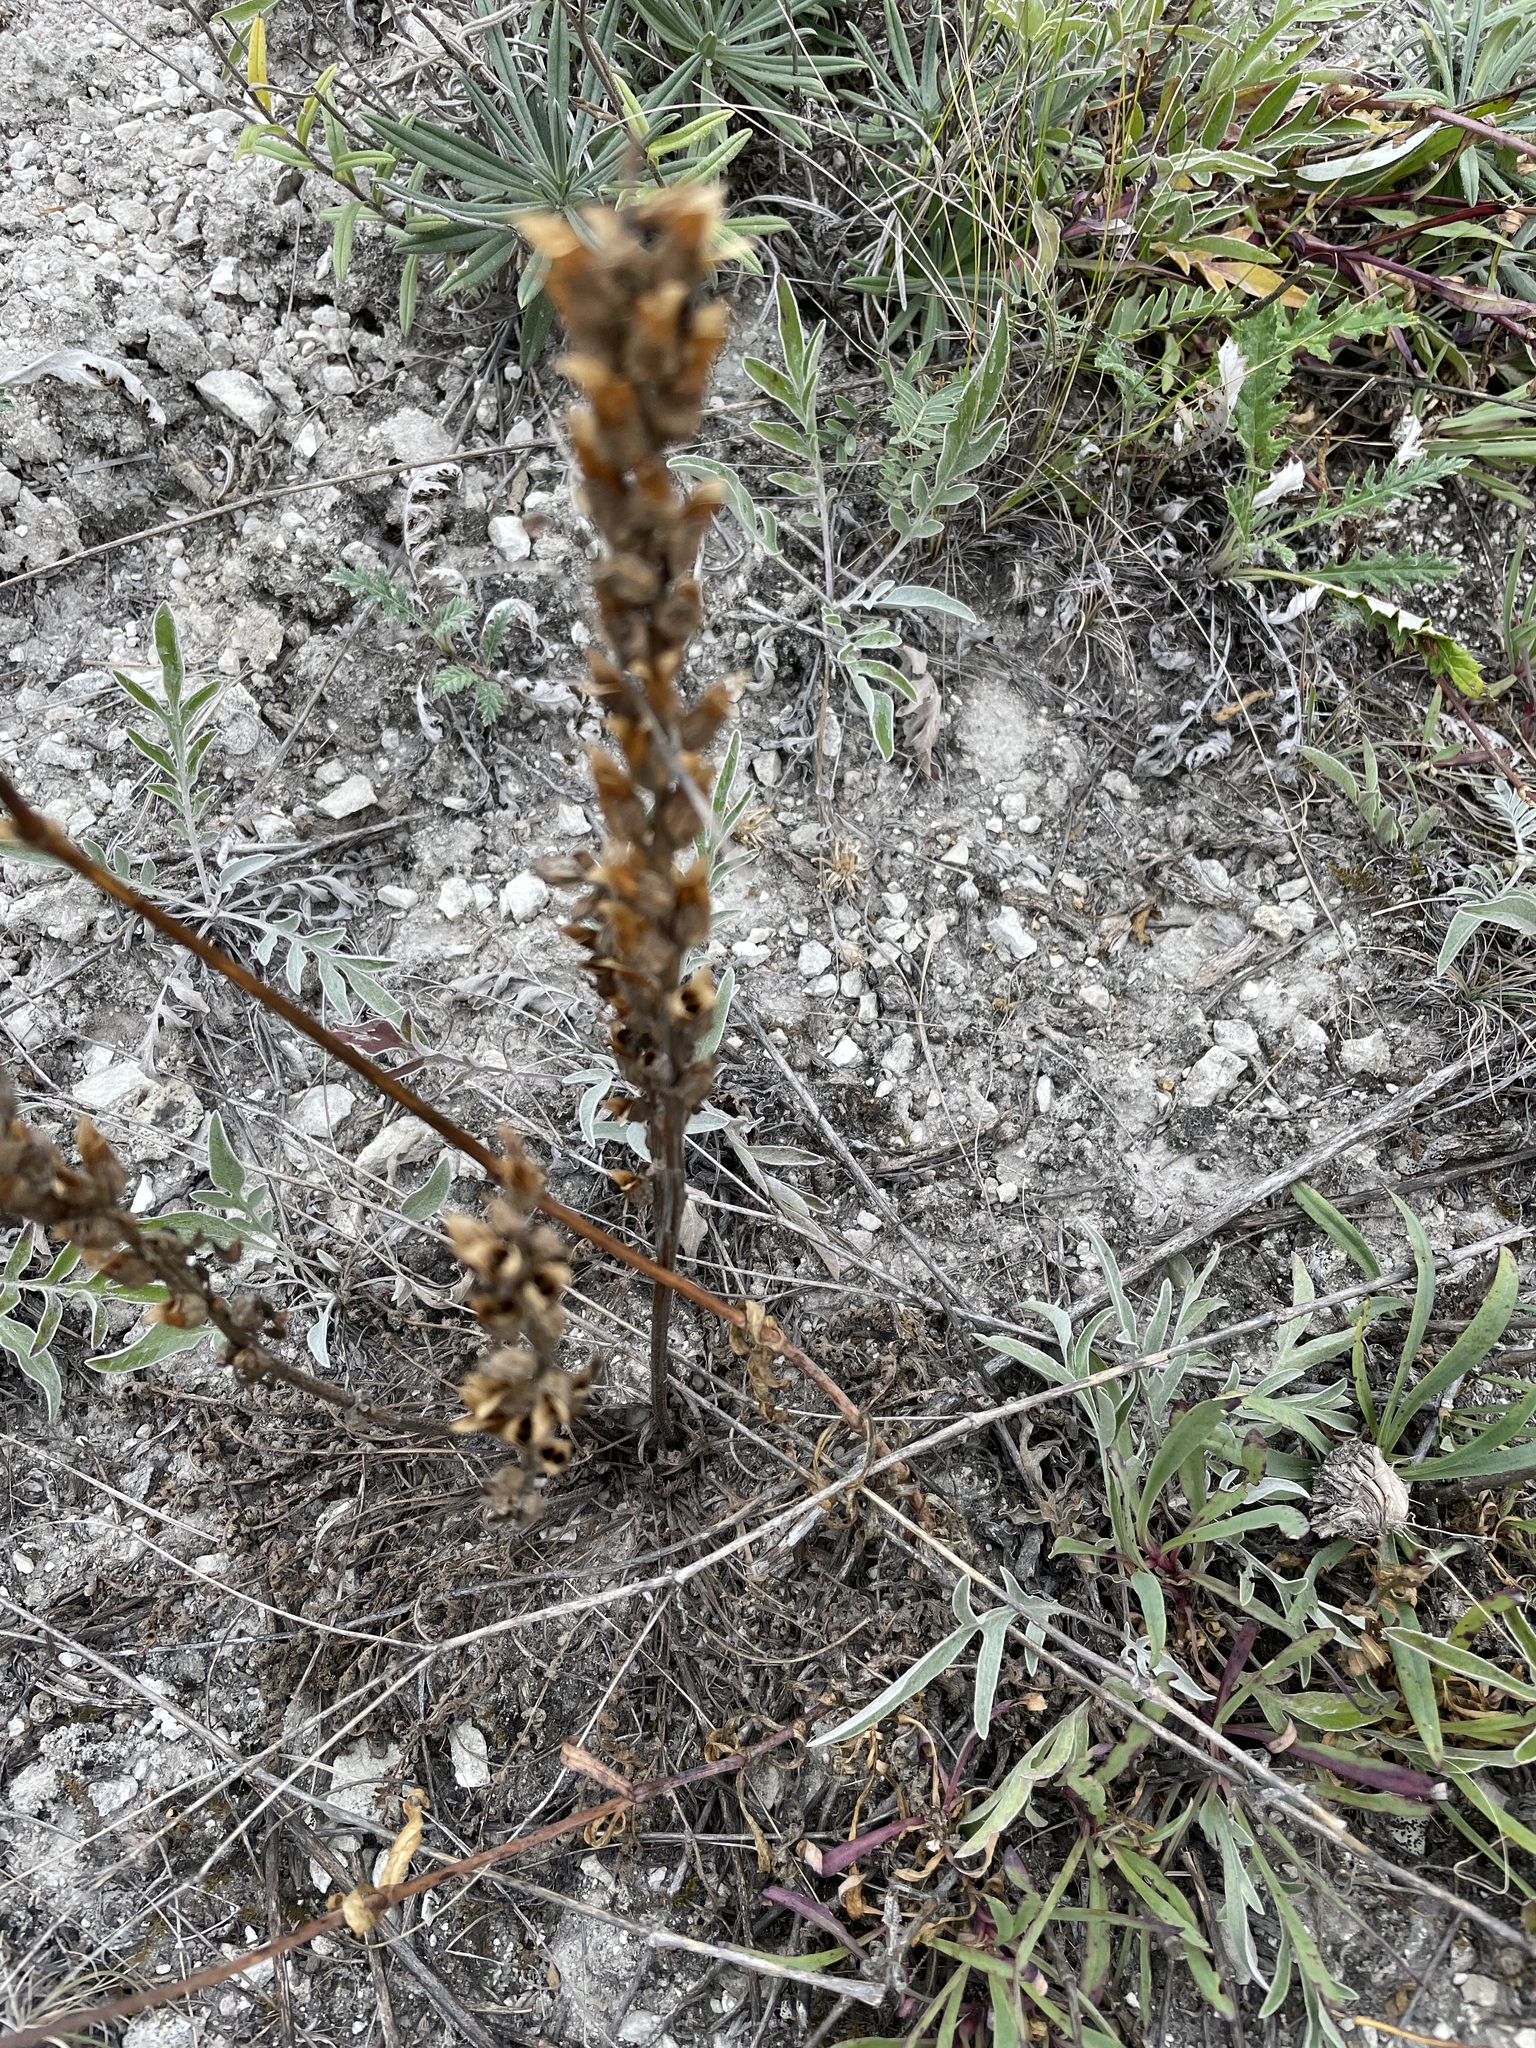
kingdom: Plantae
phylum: Tracheophyta
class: Magnoliopsida
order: Lamiales
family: Orobanchaceae
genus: Pedicularis
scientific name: Pedicularis kaufmannii
